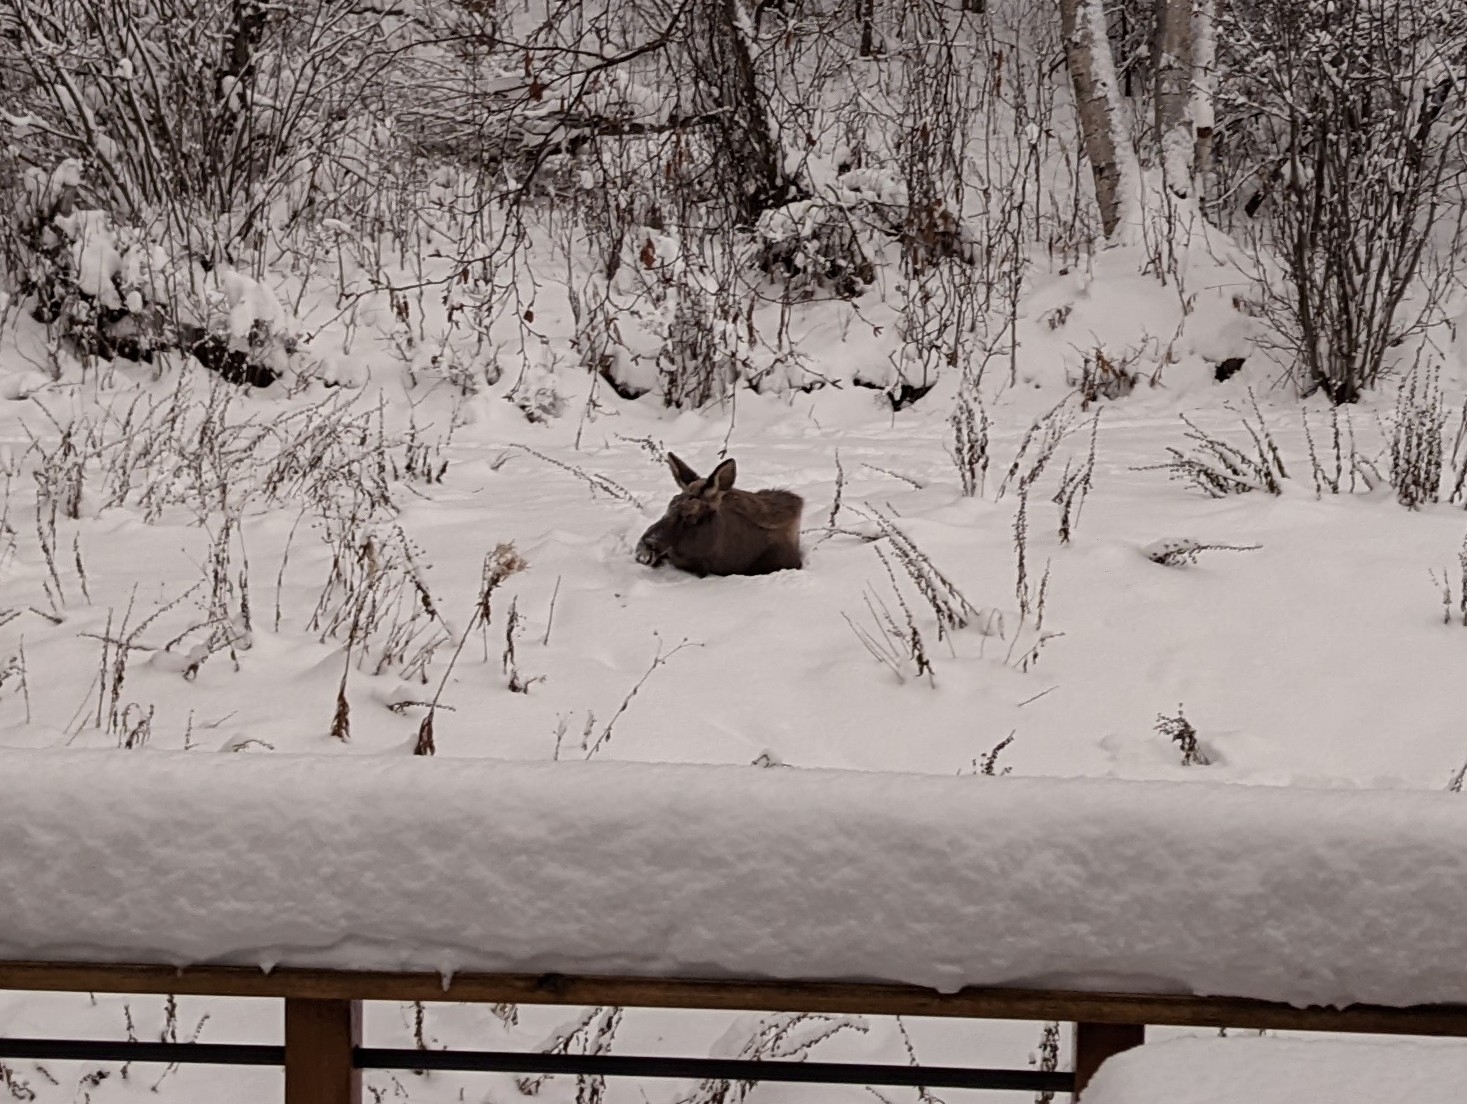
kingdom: Animalia
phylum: Chordata
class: Mammalia
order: Artiodactyla
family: Cervidae
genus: Alces
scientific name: Alces alces
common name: Moose
